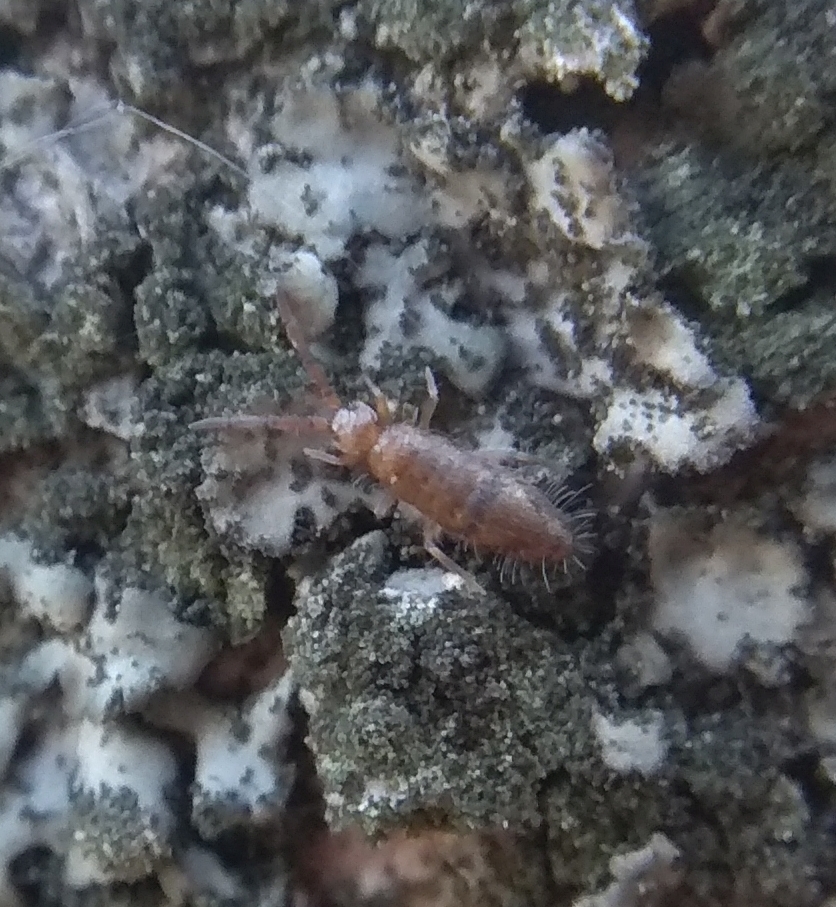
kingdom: Animalia
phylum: Arthropoda
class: Collembola
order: Entomobryomorpha
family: Entomobryidae
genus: Willowsia
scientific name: Willowsia nigromaculata
